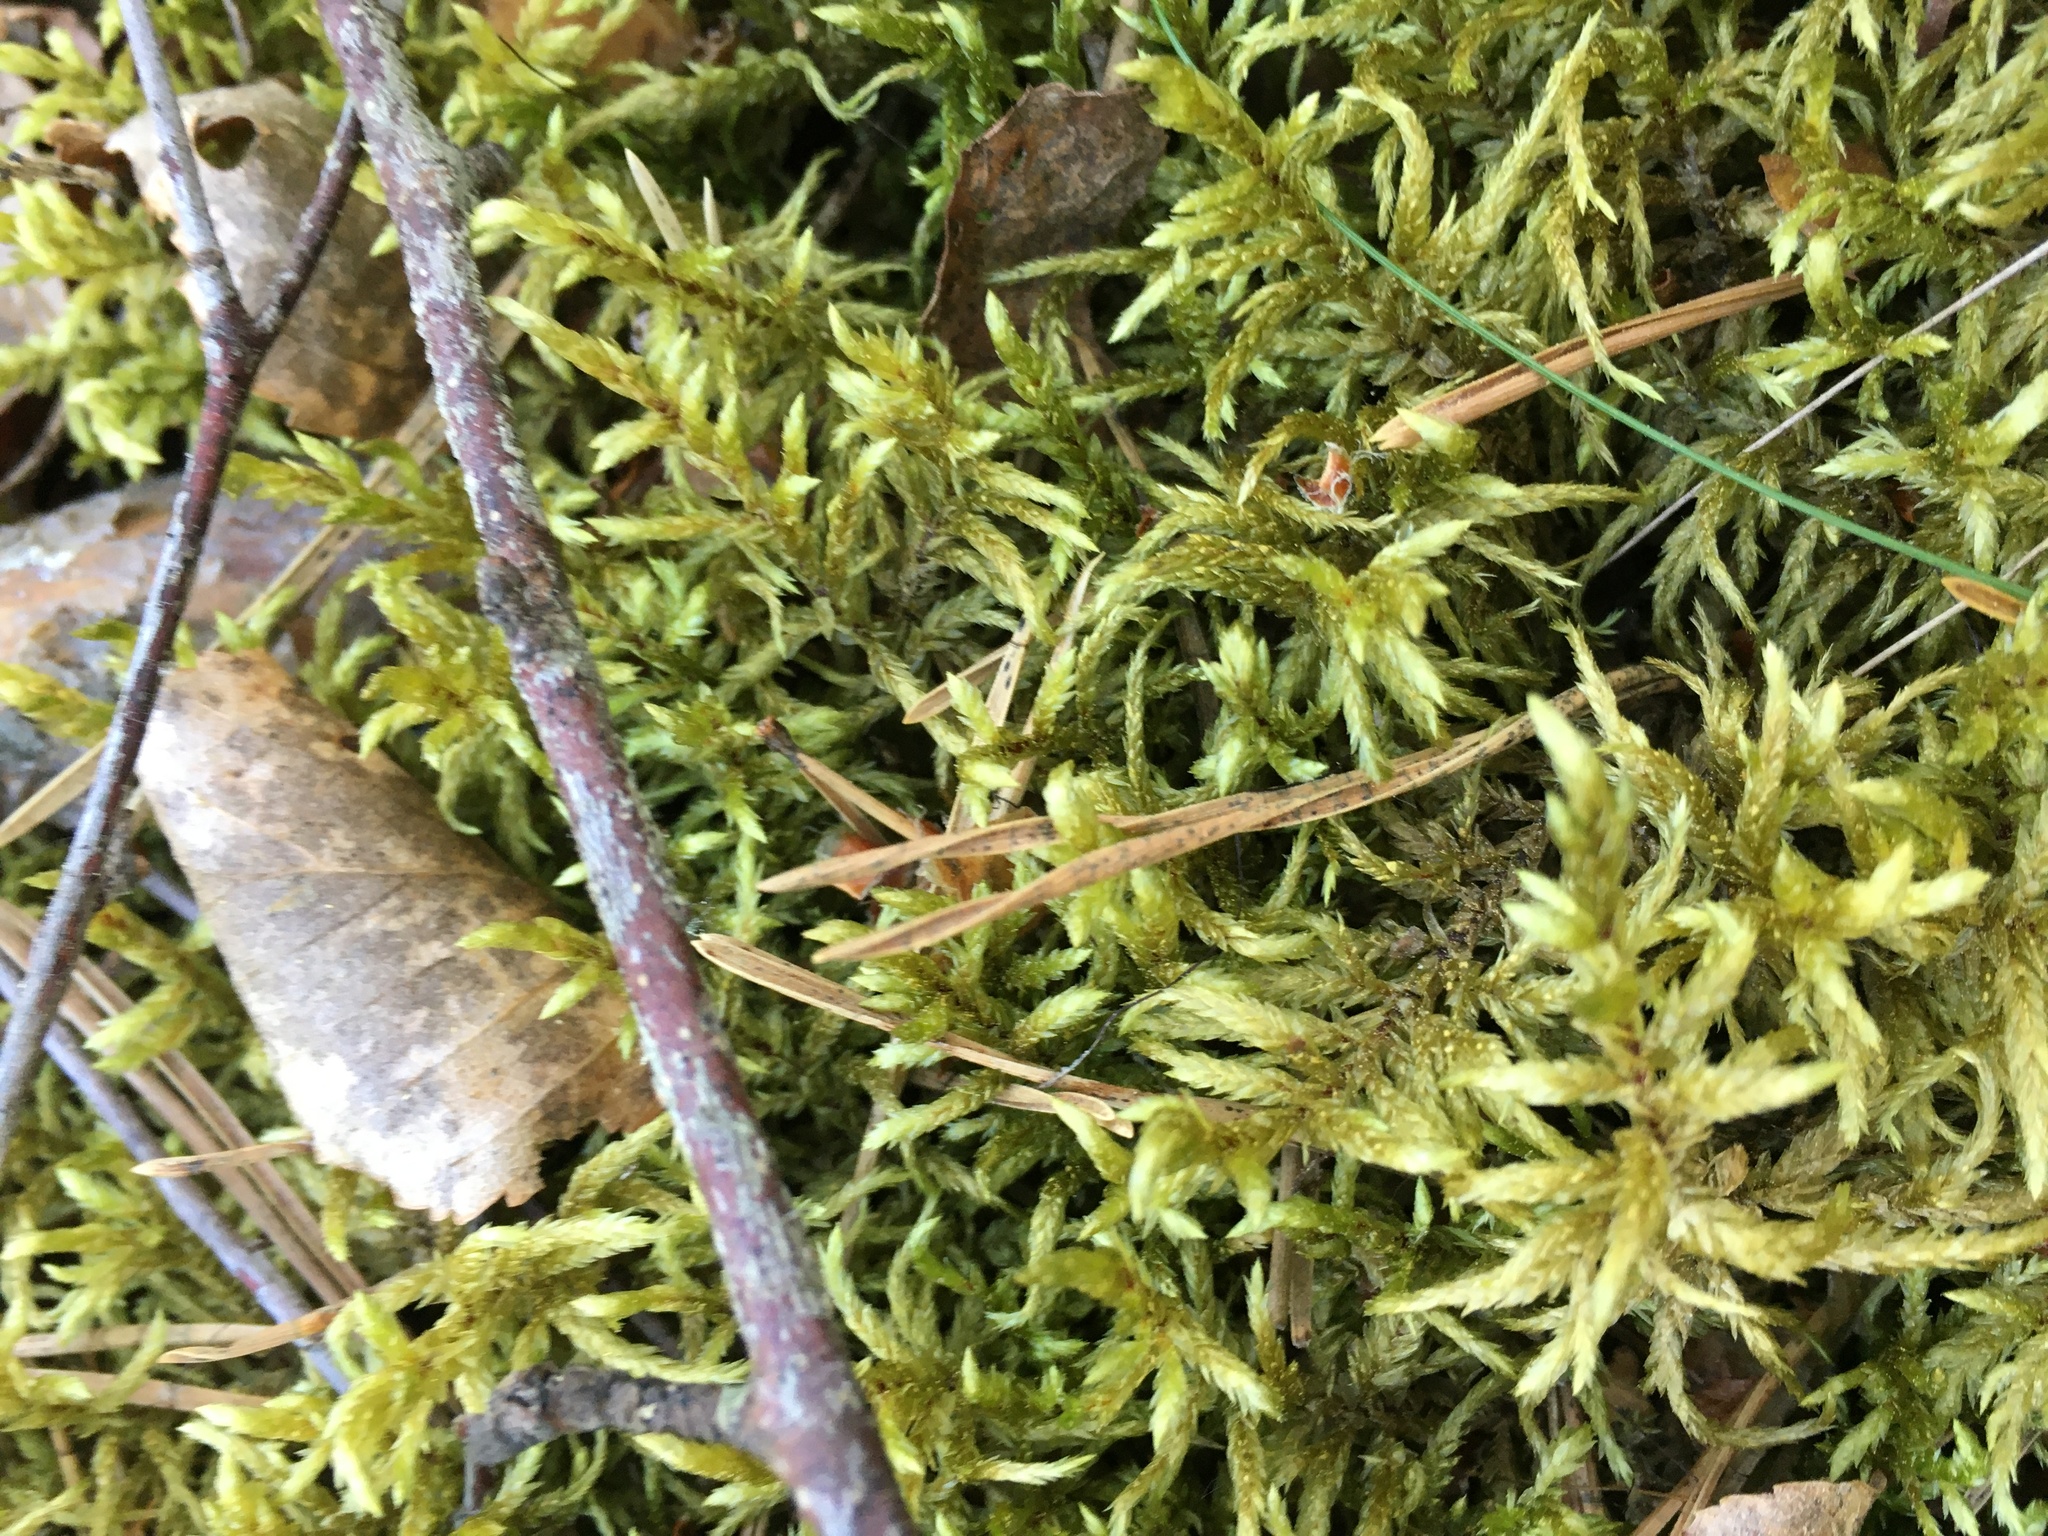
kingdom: Plantae
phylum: Bryophyta
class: Bryopsida
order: Hypnales
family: Hylocomiaceae
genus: Pleurozium
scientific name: Pleurozium schreberi
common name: Red-stemmed feather moss
